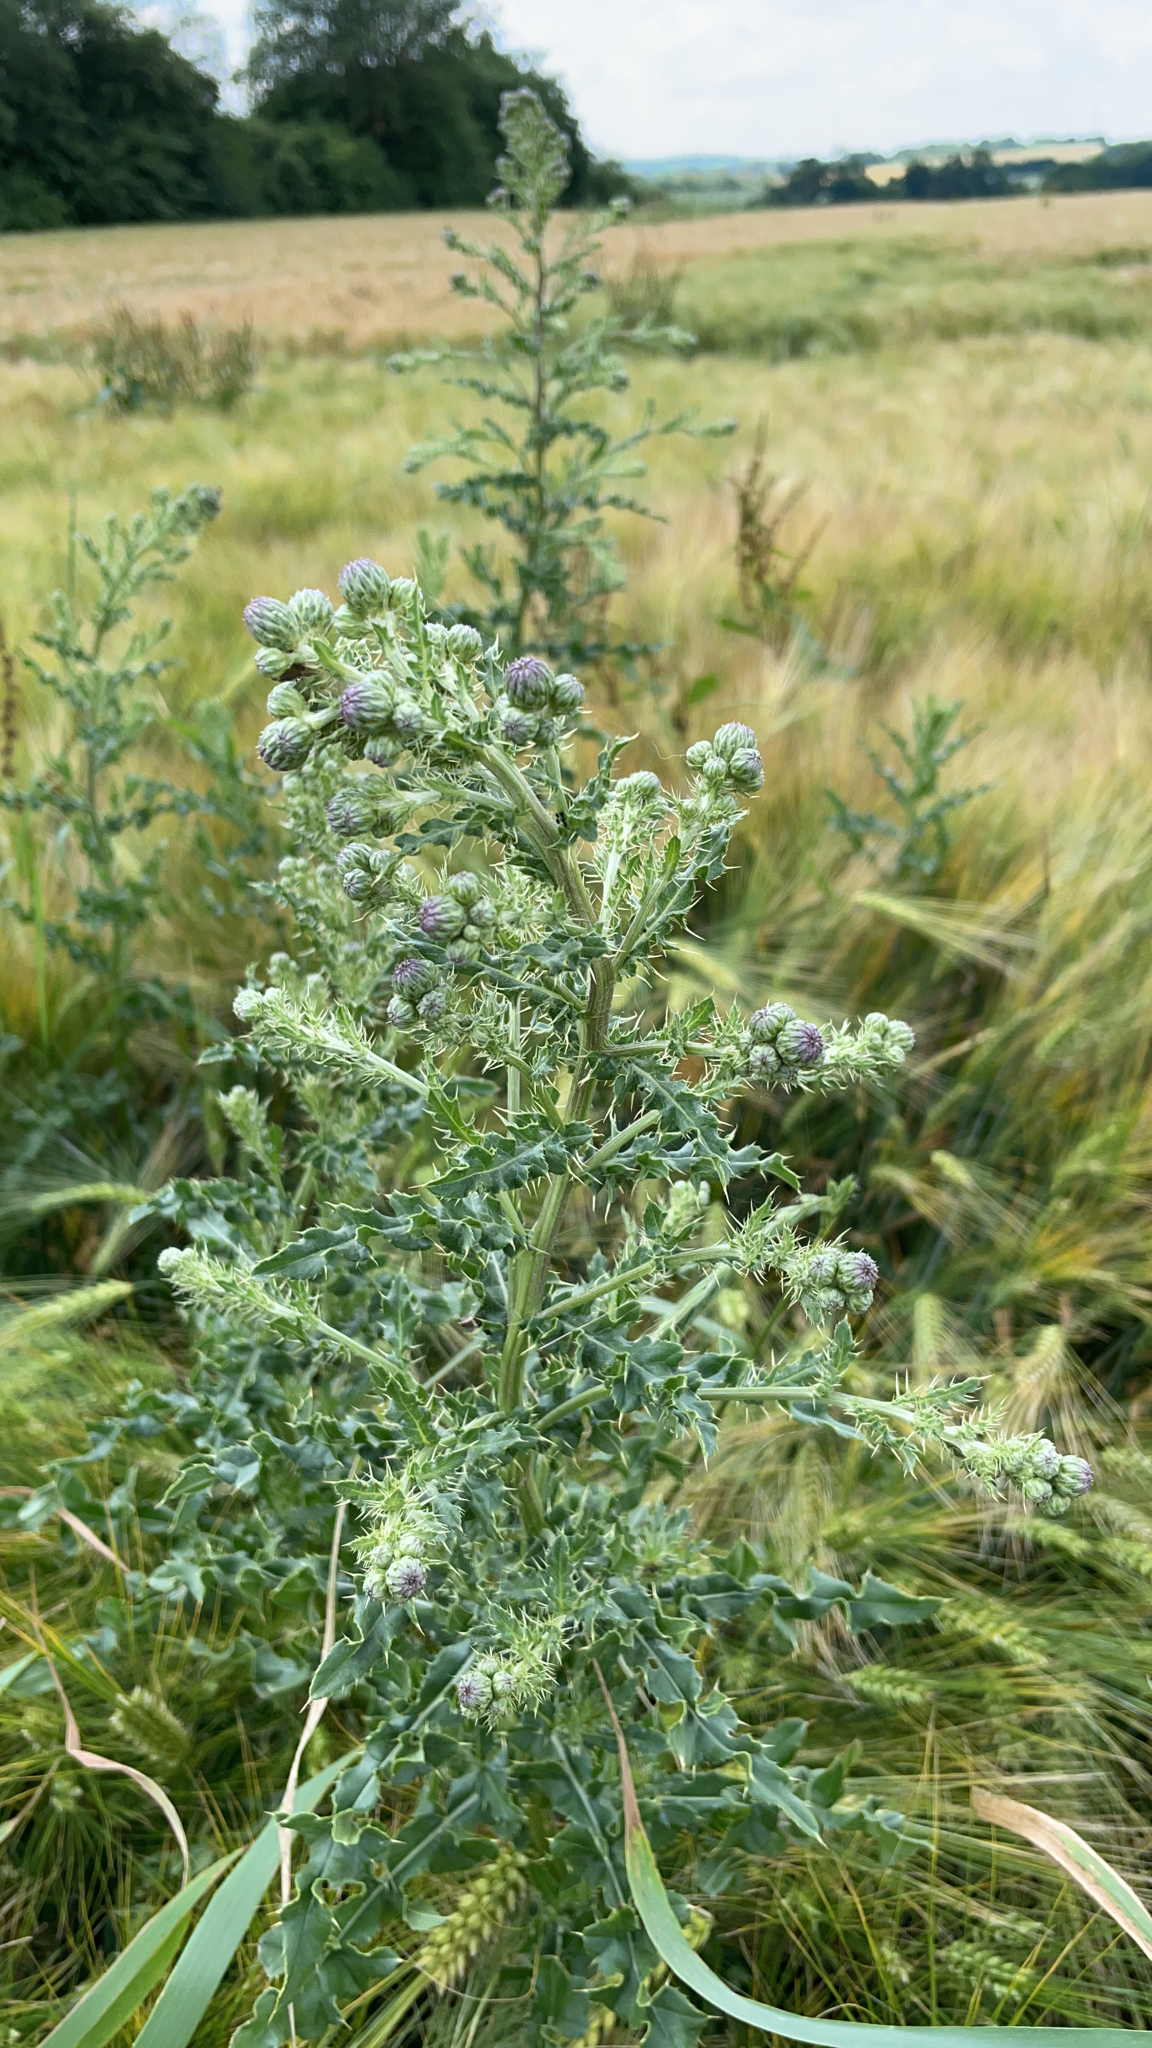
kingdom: Plantae
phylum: Tracheophyta
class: Magnoliopsida
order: Asterales
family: Asteraceae
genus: Cirsium
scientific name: Cirsium arvense
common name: Creeping thistle
